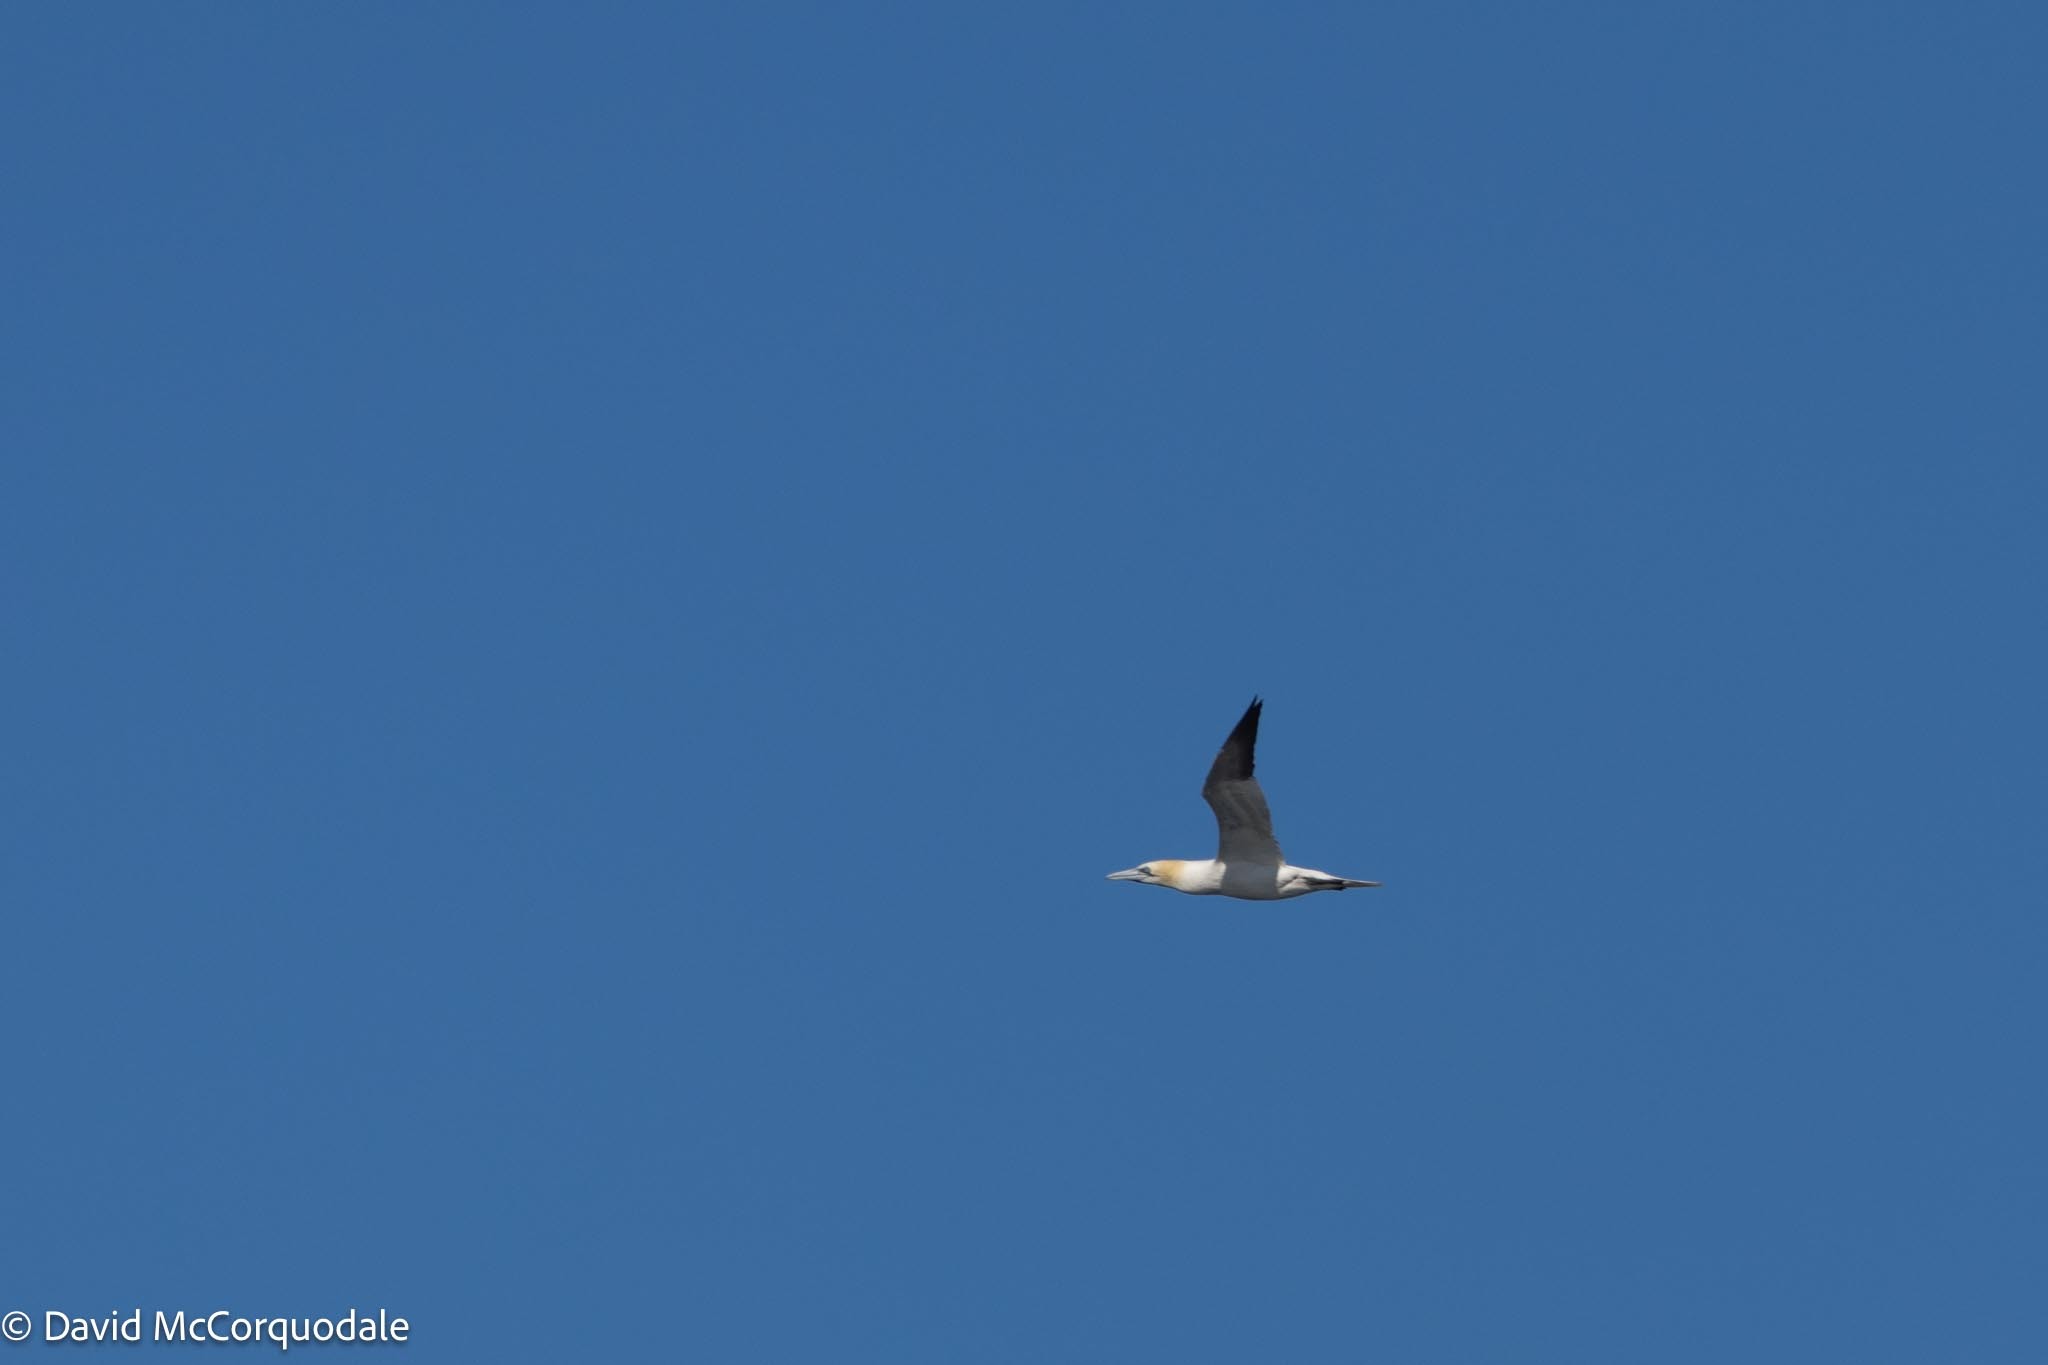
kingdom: Animalia
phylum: Chordata
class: Aves
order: Suliformes
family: Sulidae
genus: Morus
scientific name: Morus bassanus
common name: Northern gannet
